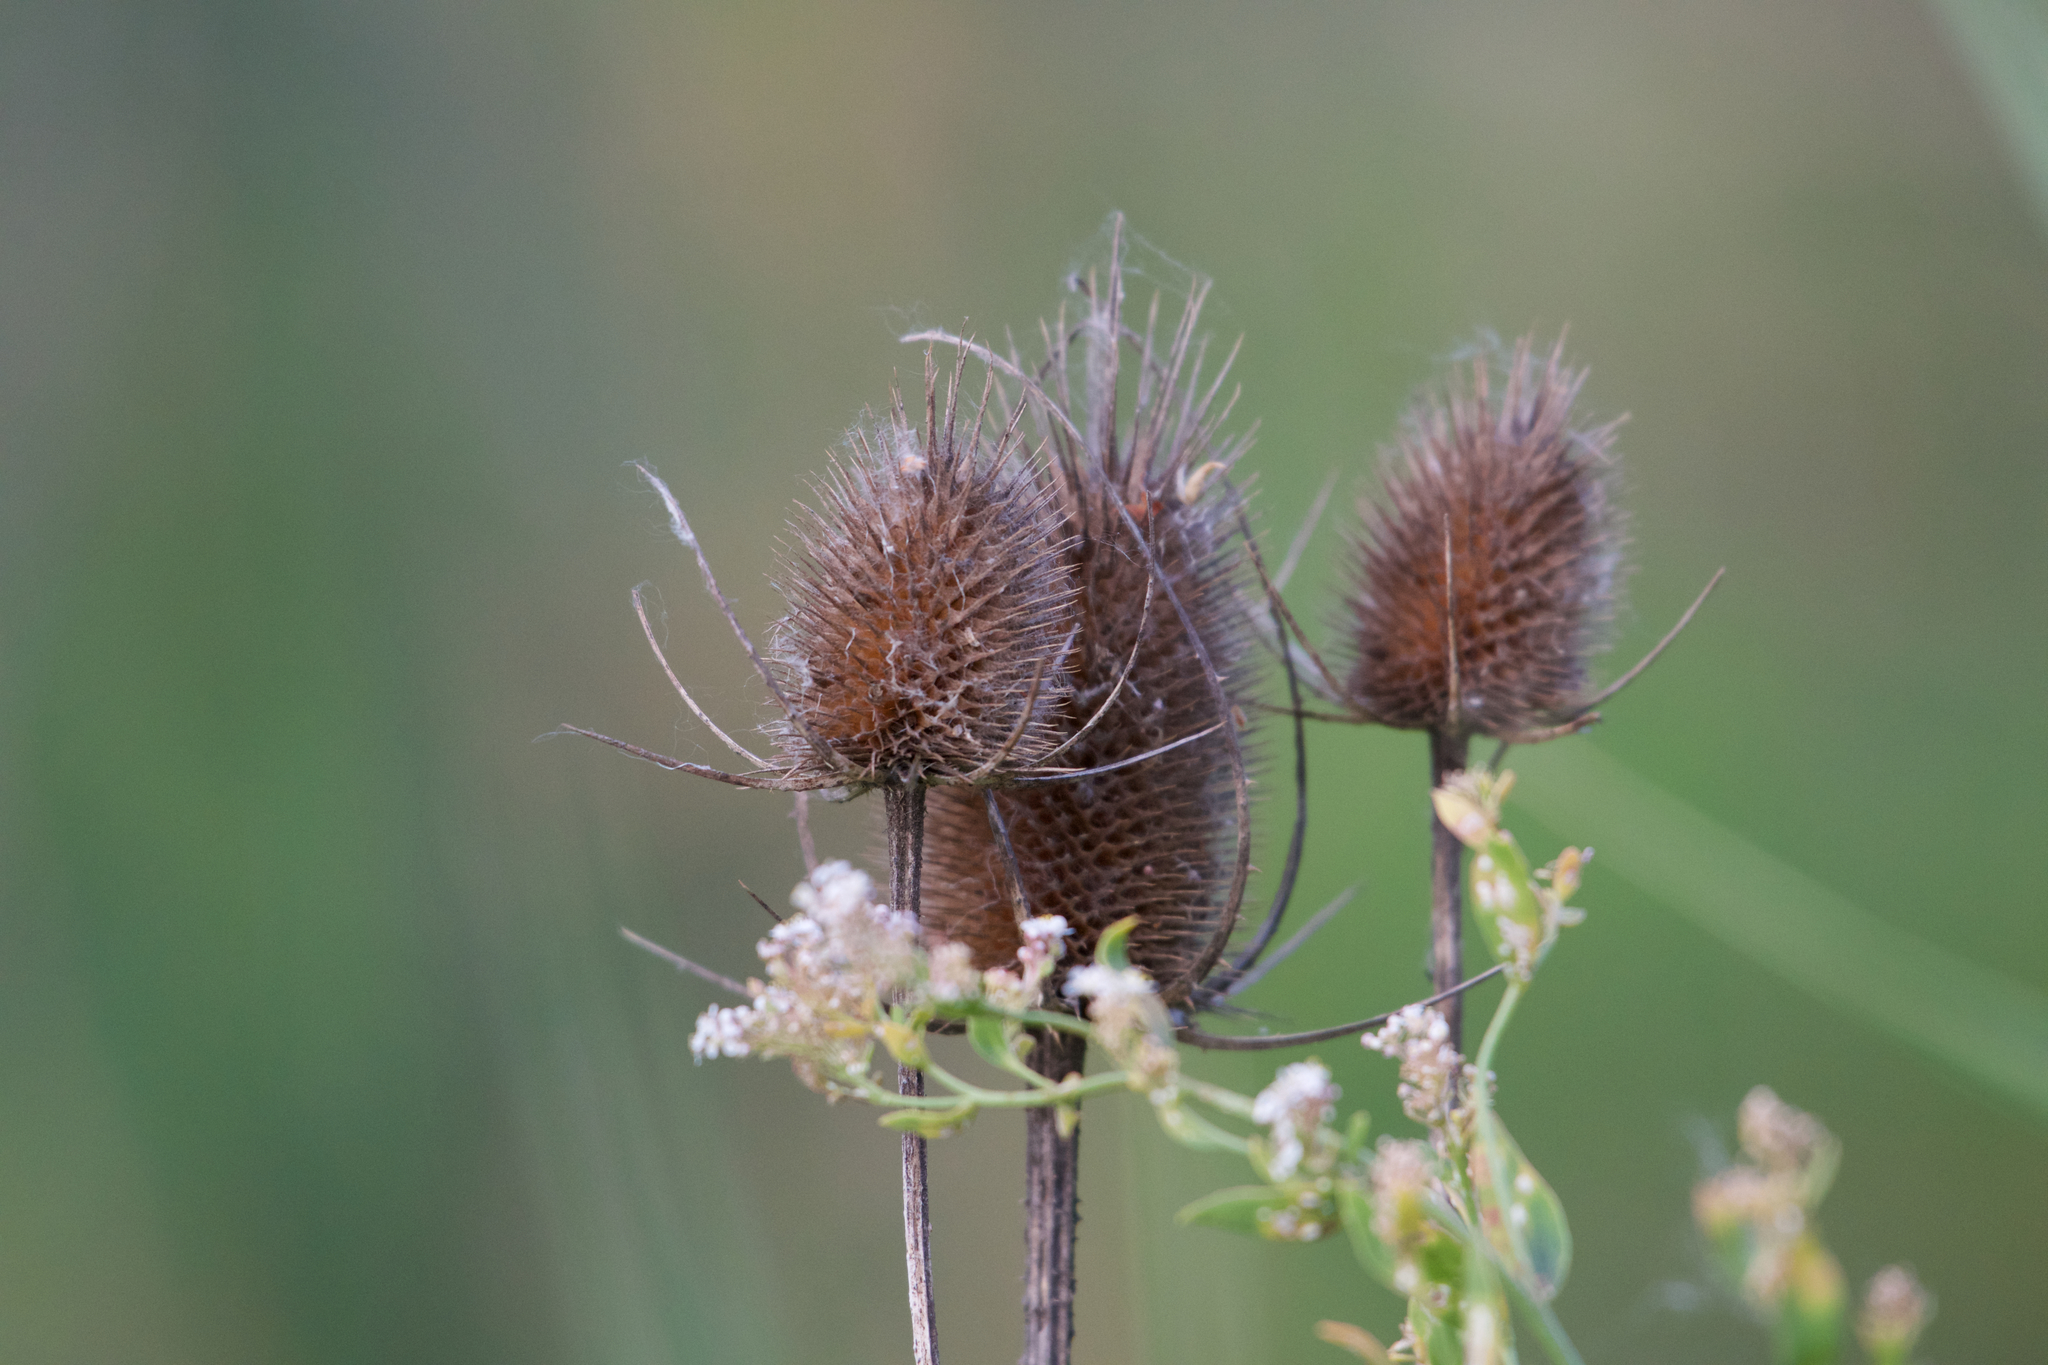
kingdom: Plantae
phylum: Tracheophyta
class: Magnoliopsida
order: Dipsacales
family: Caprifoliaceae
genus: Dipsacus
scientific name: Dipsacus fullonum
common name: Teasel
